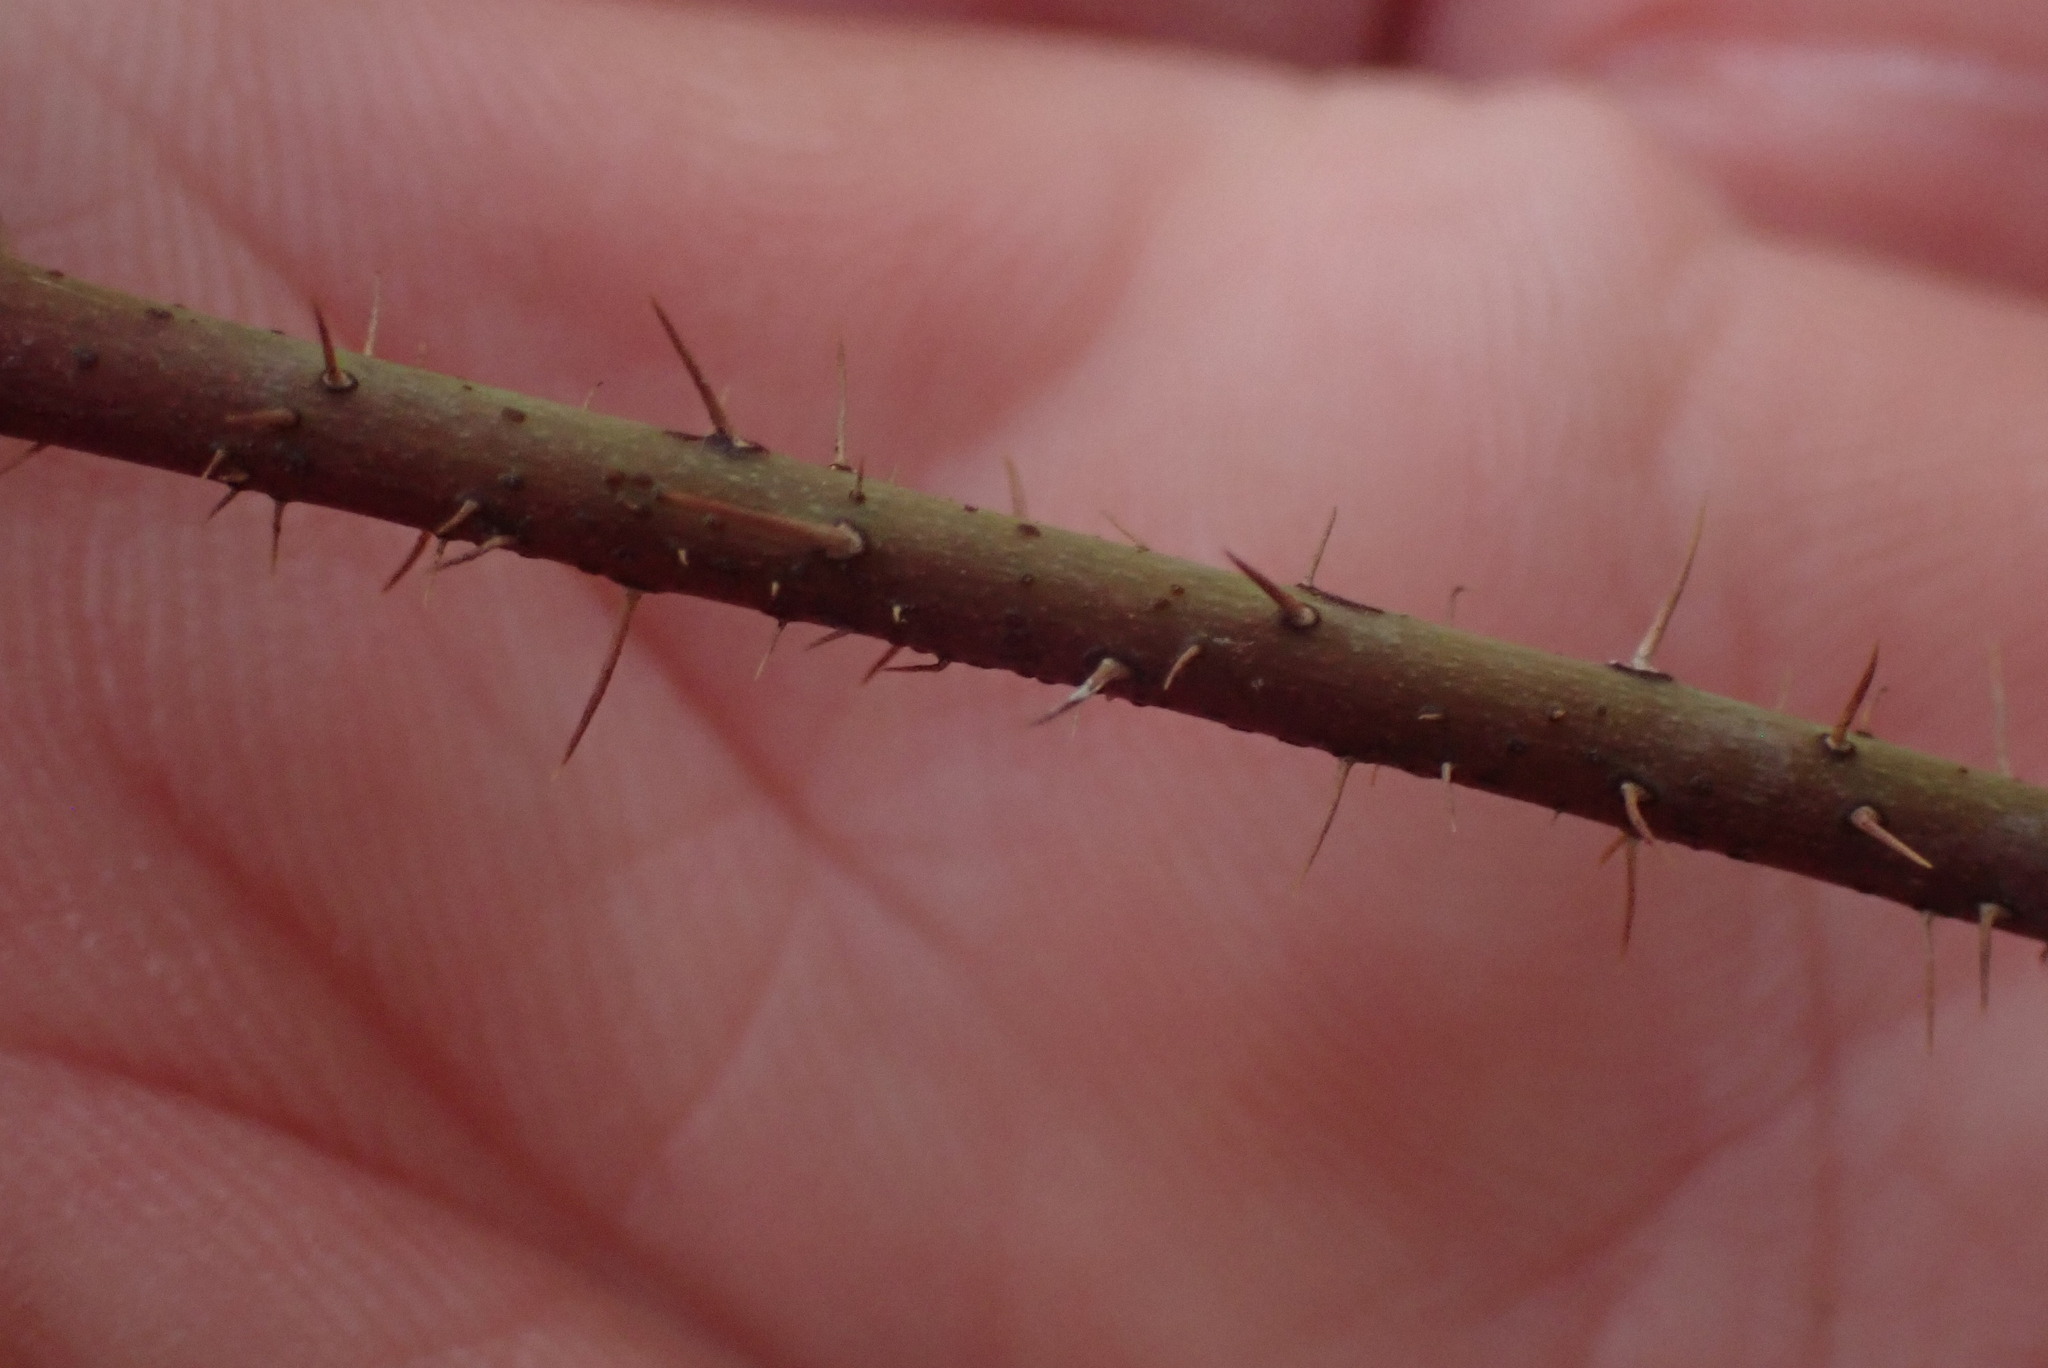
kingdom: Plantae
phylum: Tracheophyta
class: Magnoliopsida
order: Rosales
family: Rosaceae
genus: Rosa
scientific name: Rosa gymnocarpa
